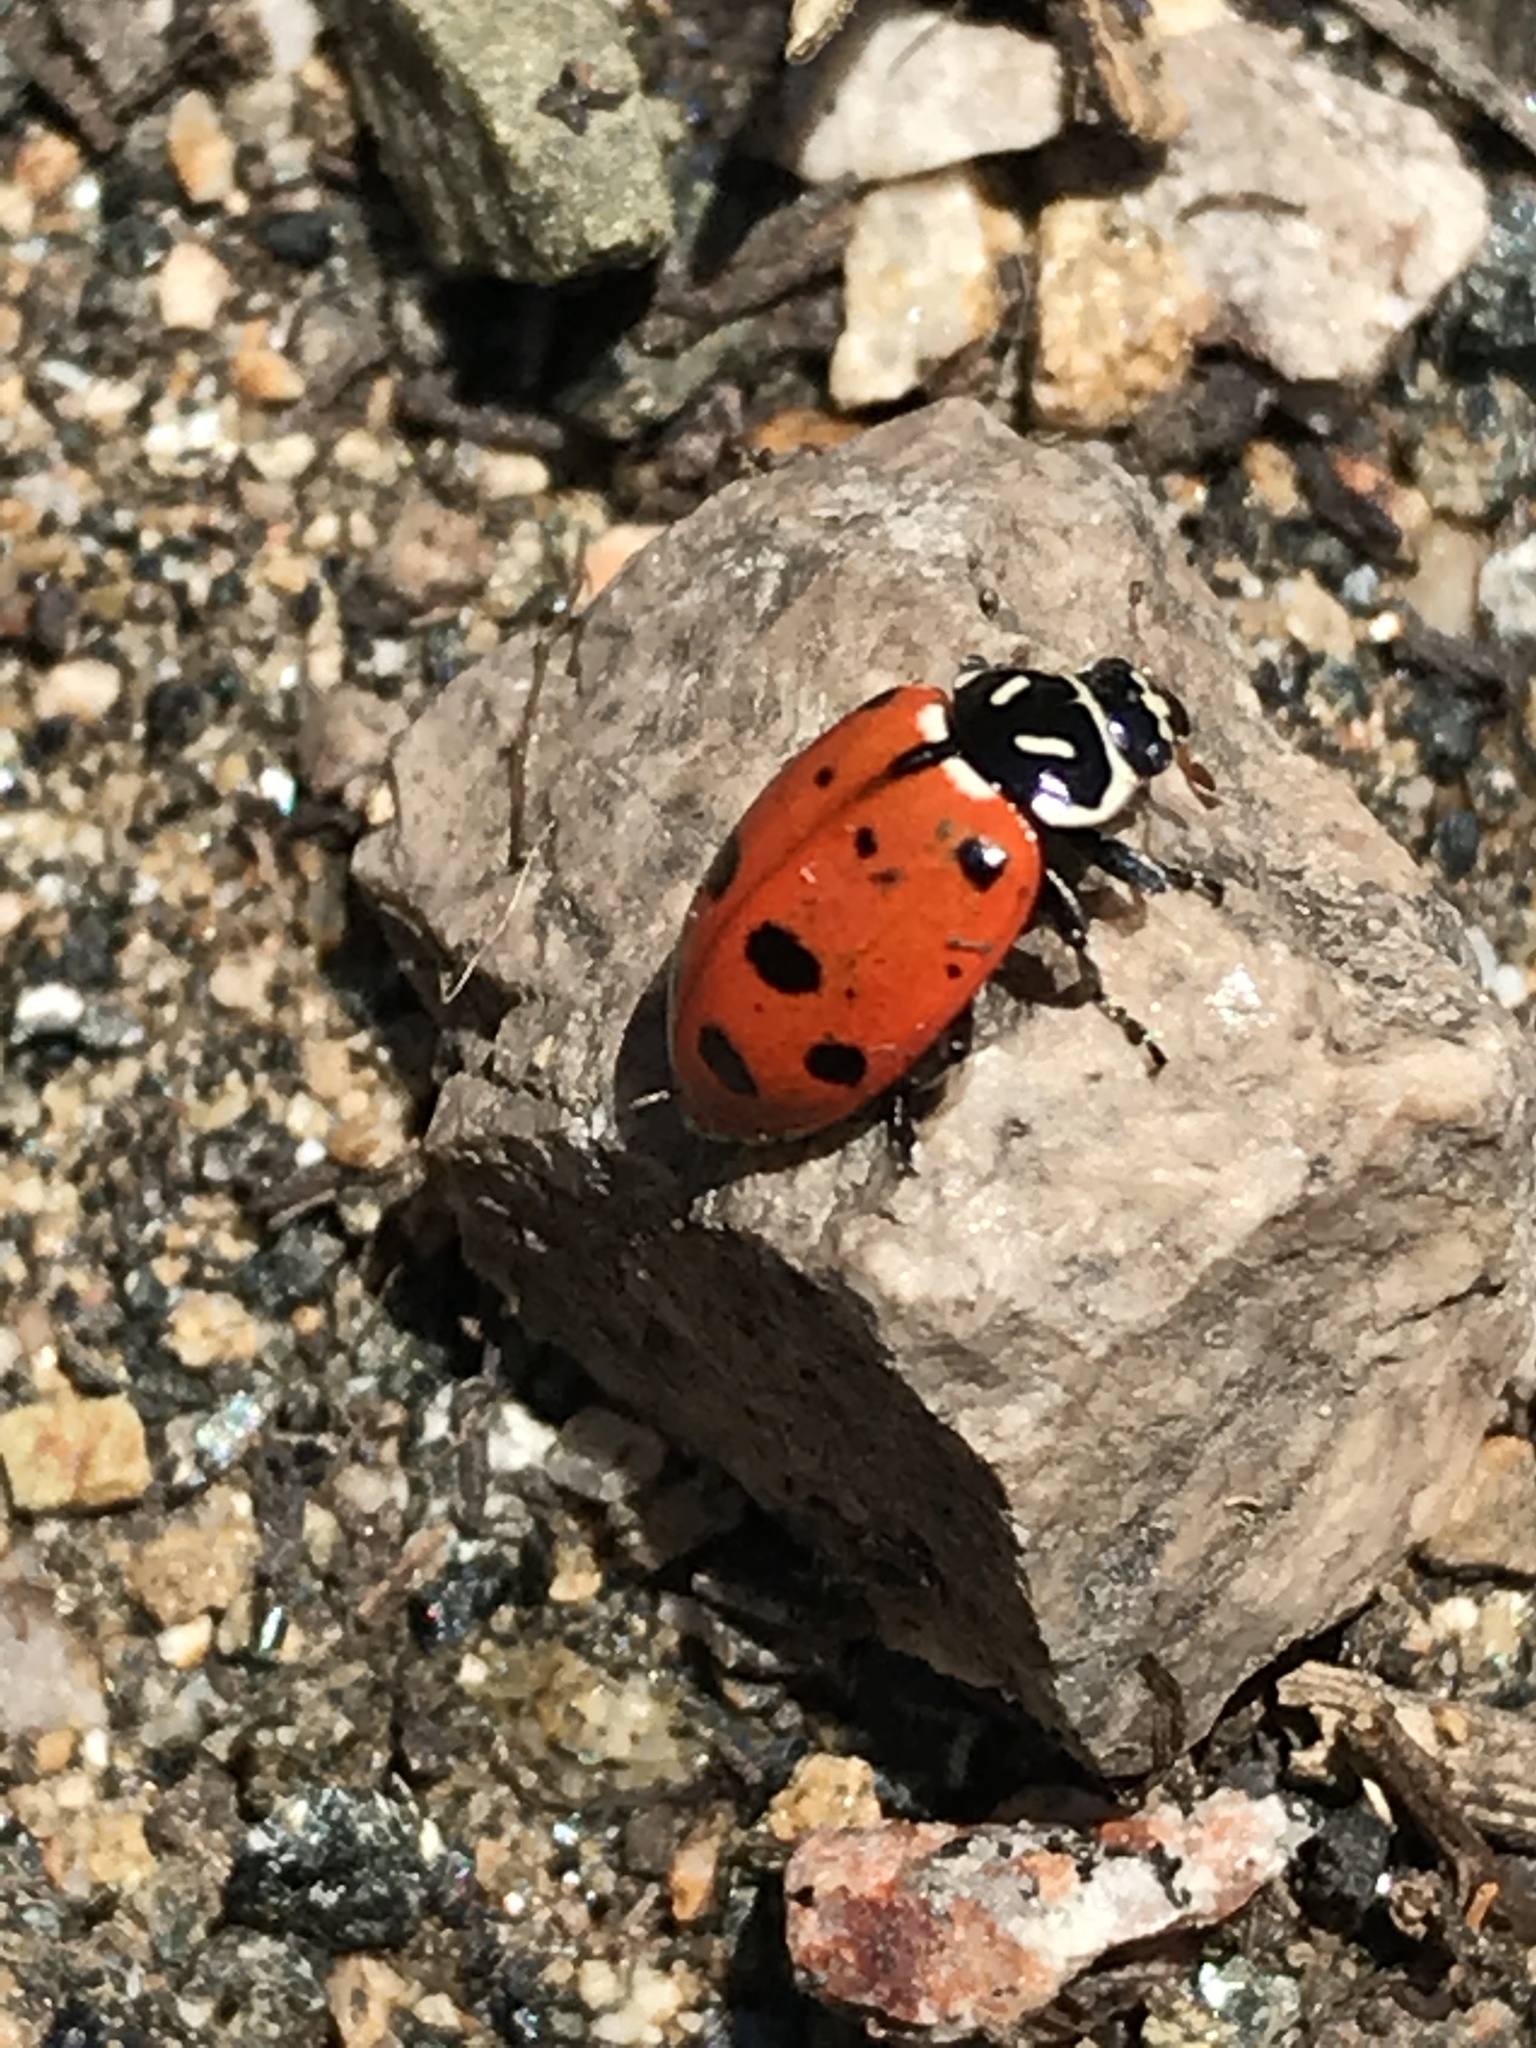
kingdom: Animalia
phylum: Arthropoda
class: Insecta
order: Coleoptera
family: Coccinellidae
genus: Hippodamia
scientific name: Hippodamia convergens
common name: Convergent lady beetle
